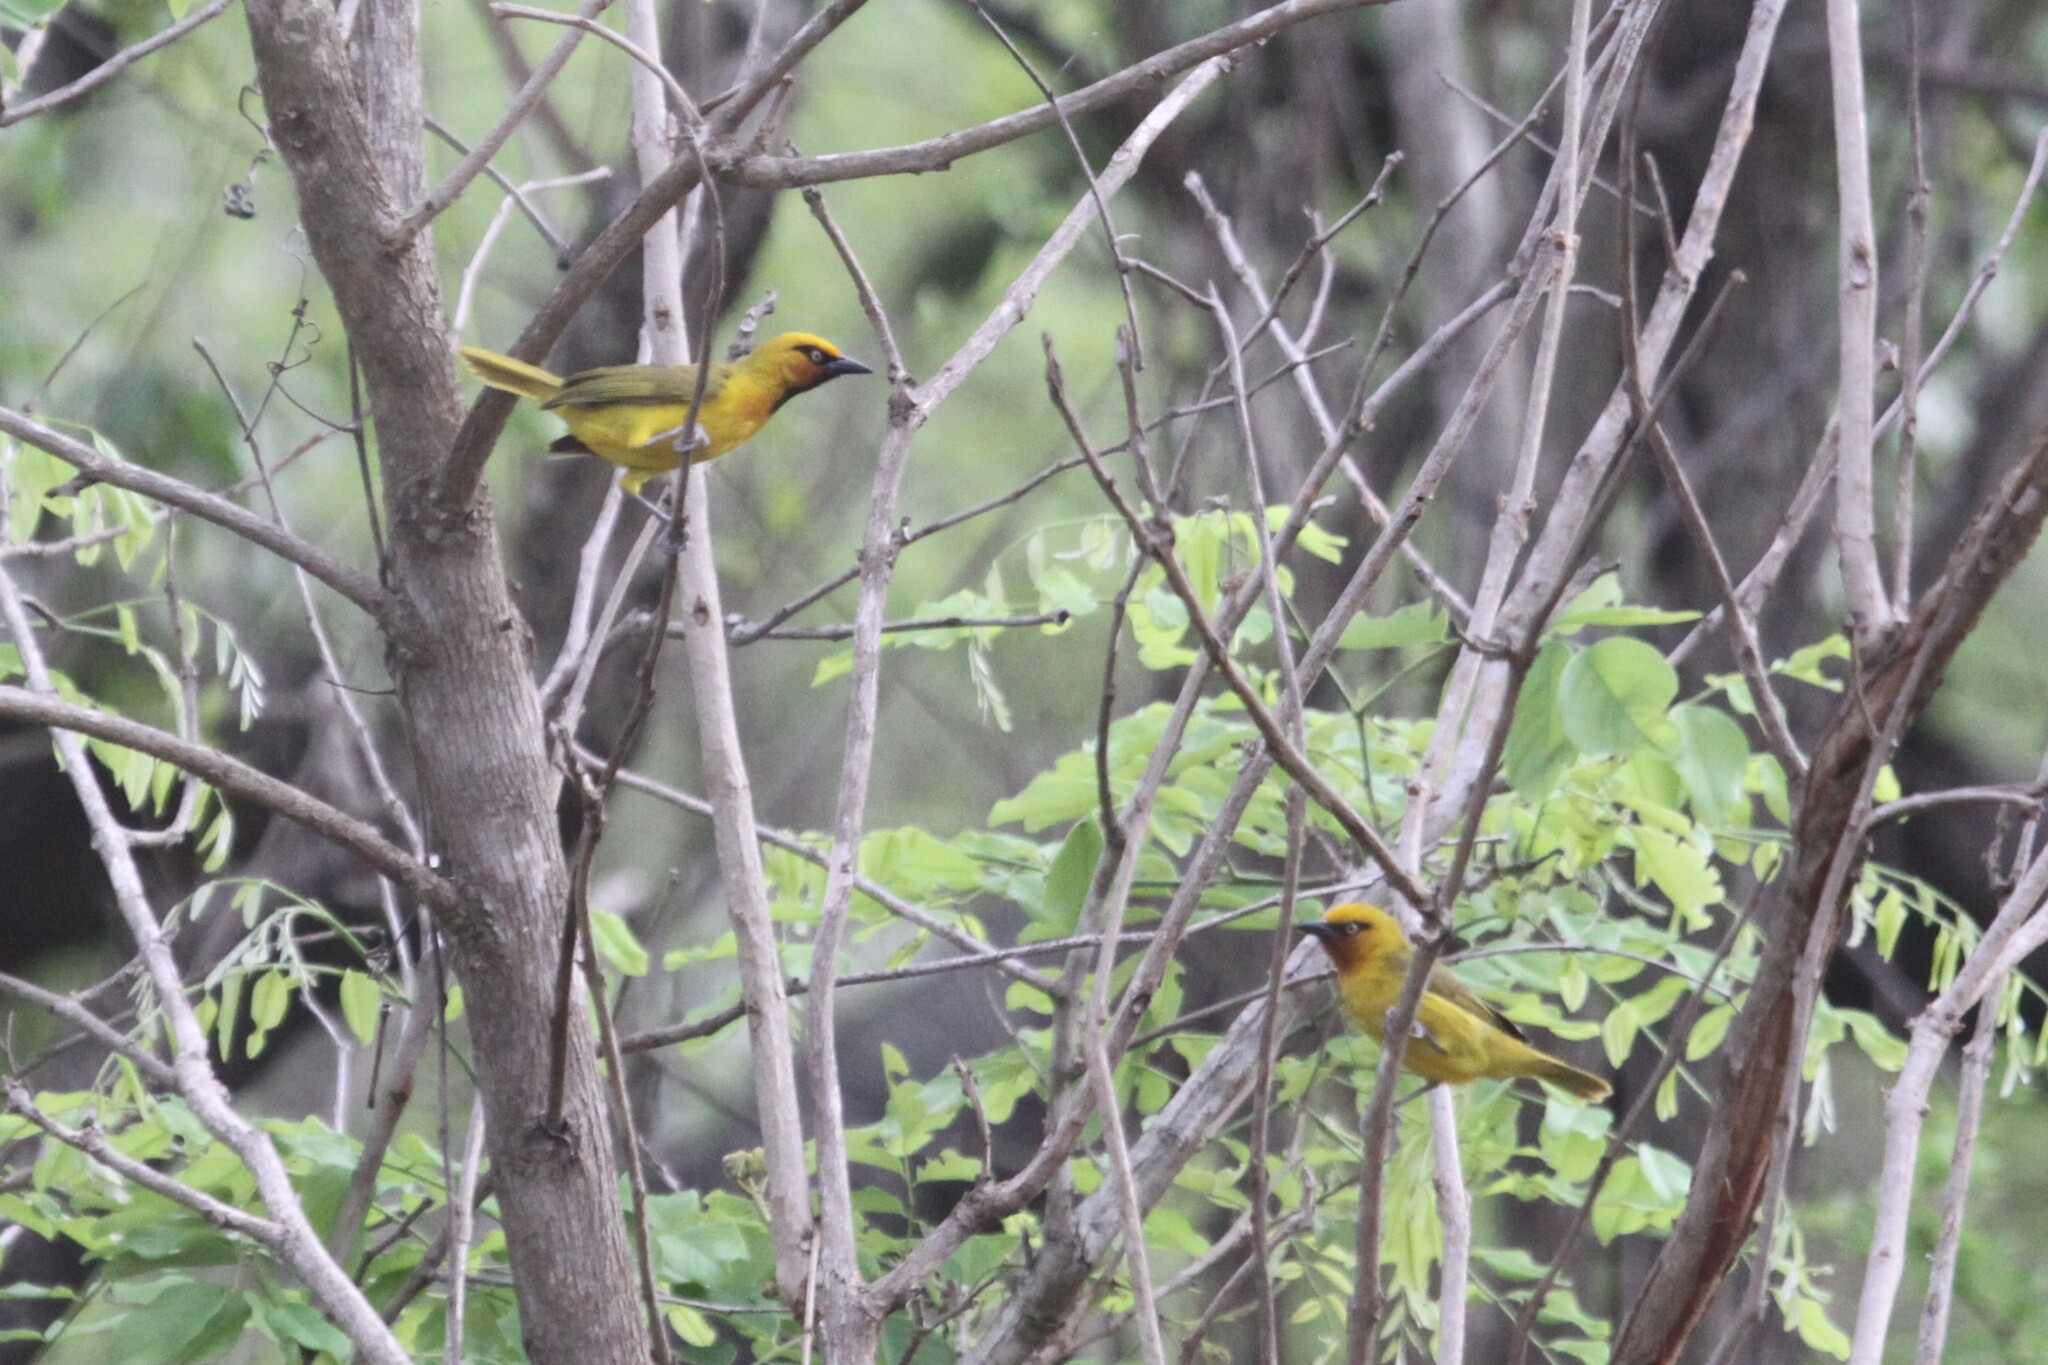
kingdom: Animalia
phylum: Chordata
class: Aves
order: Passeriformes
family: Ploceidae
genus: Ploceus
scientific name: Ploceus ocularis
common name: Spectacled weaver
